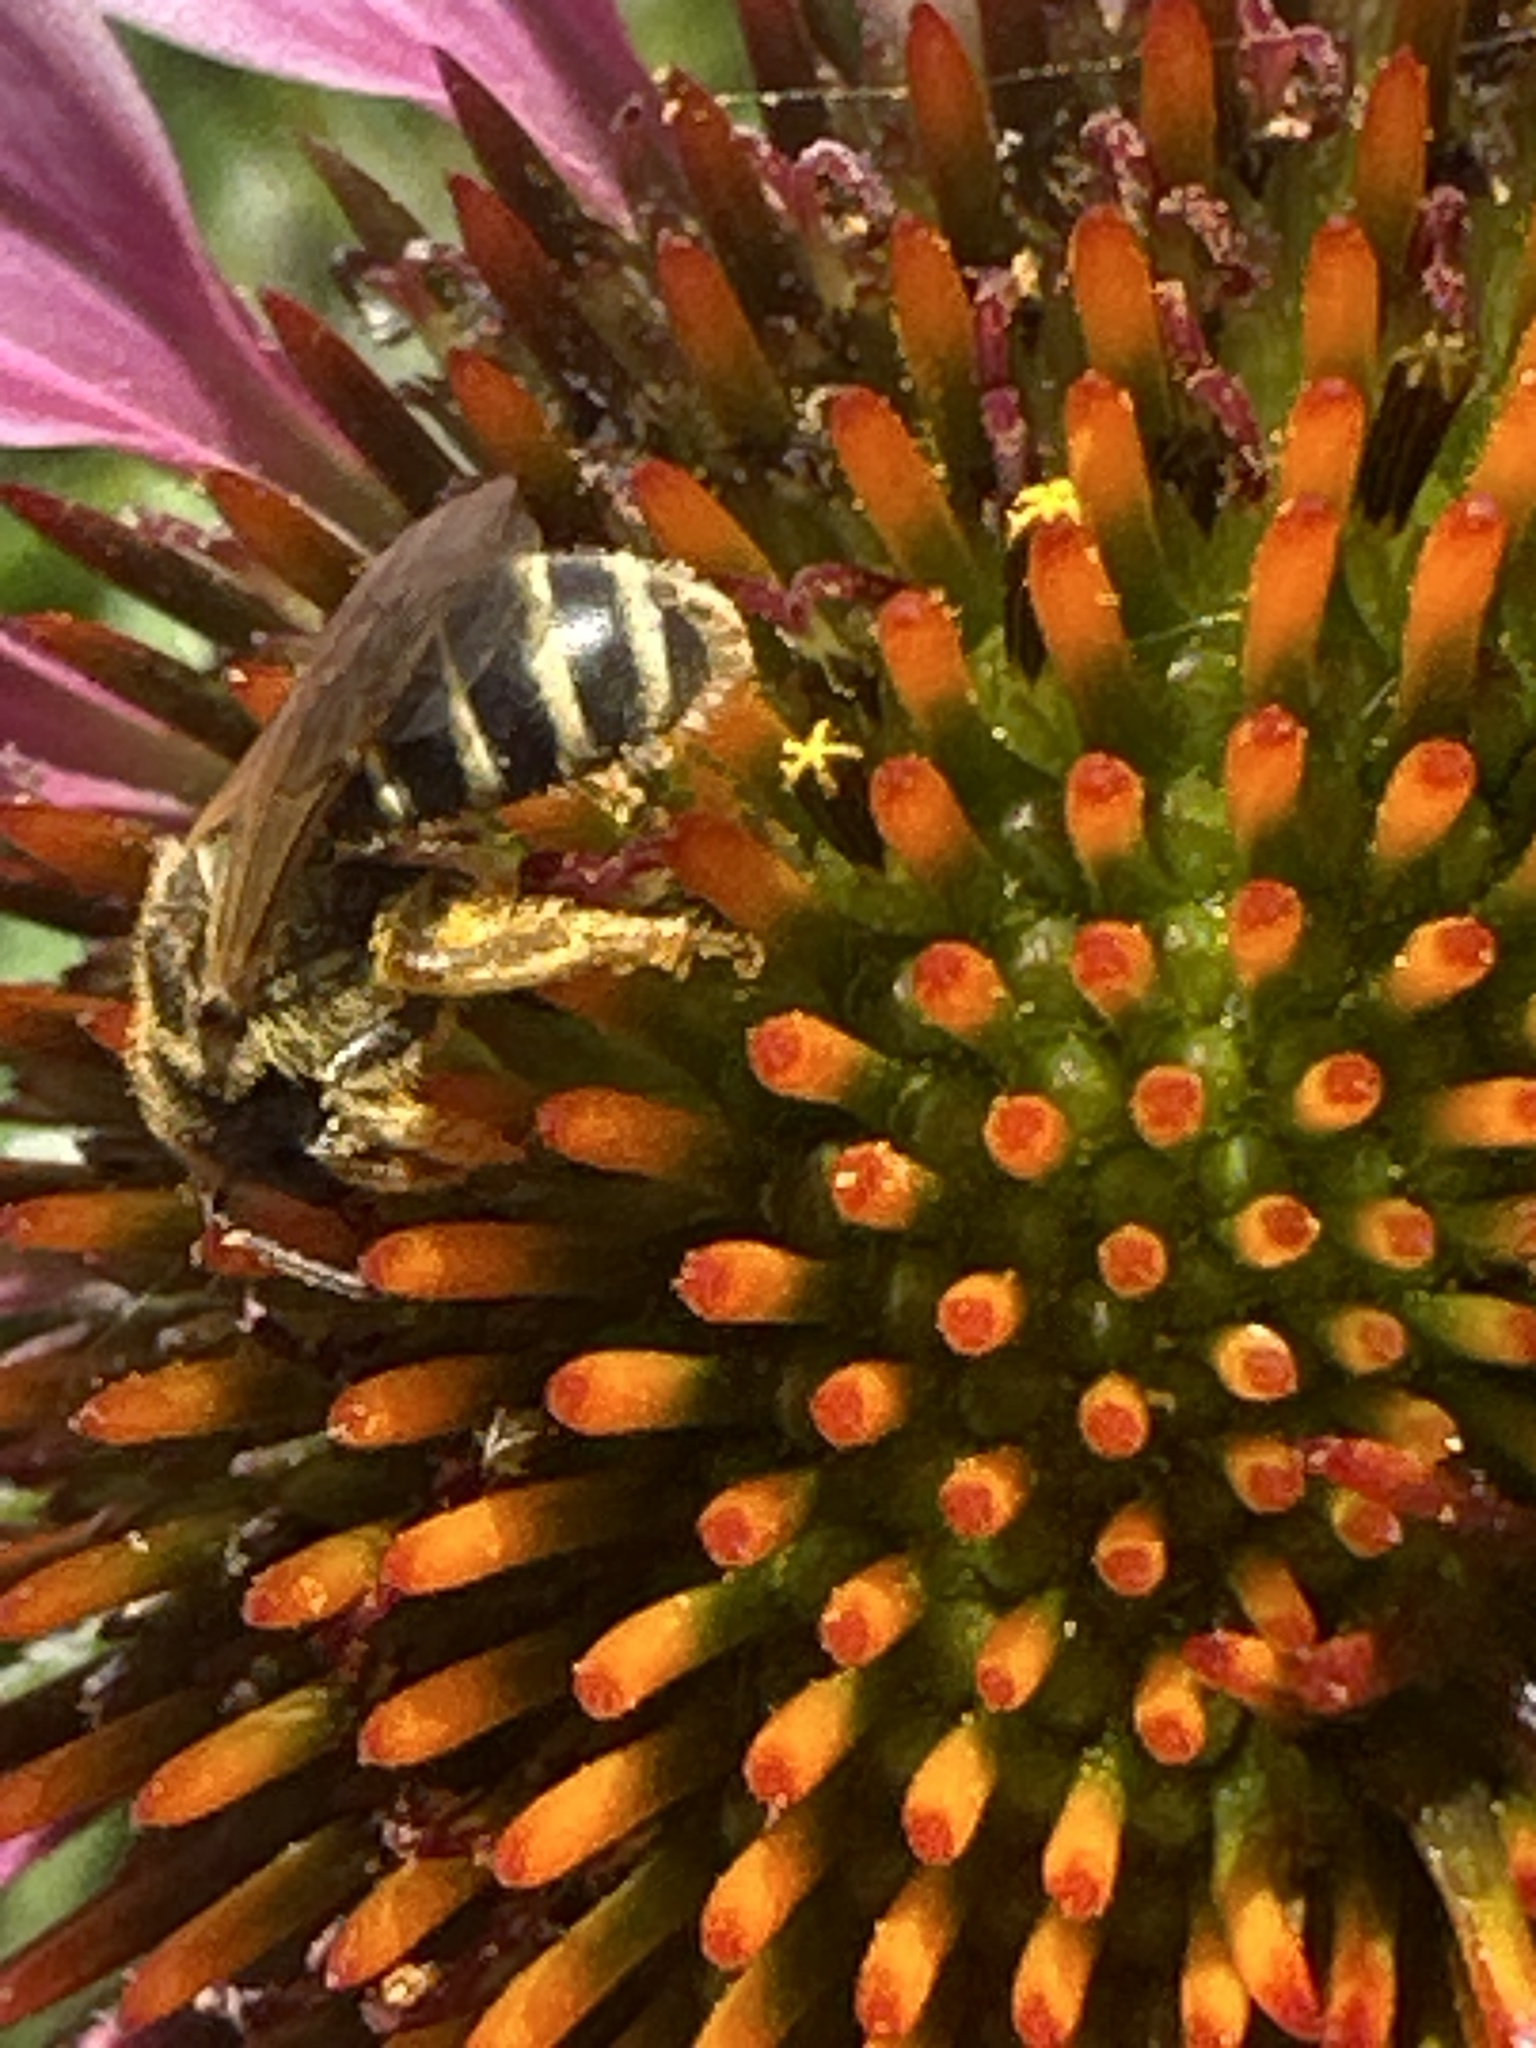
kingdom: Animalia
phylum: Arthropoda
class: Insecta
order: Hymenoptera
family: Halictidae
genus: Halictus
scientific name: Halictus ligatus
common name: Ligated furrow bee
